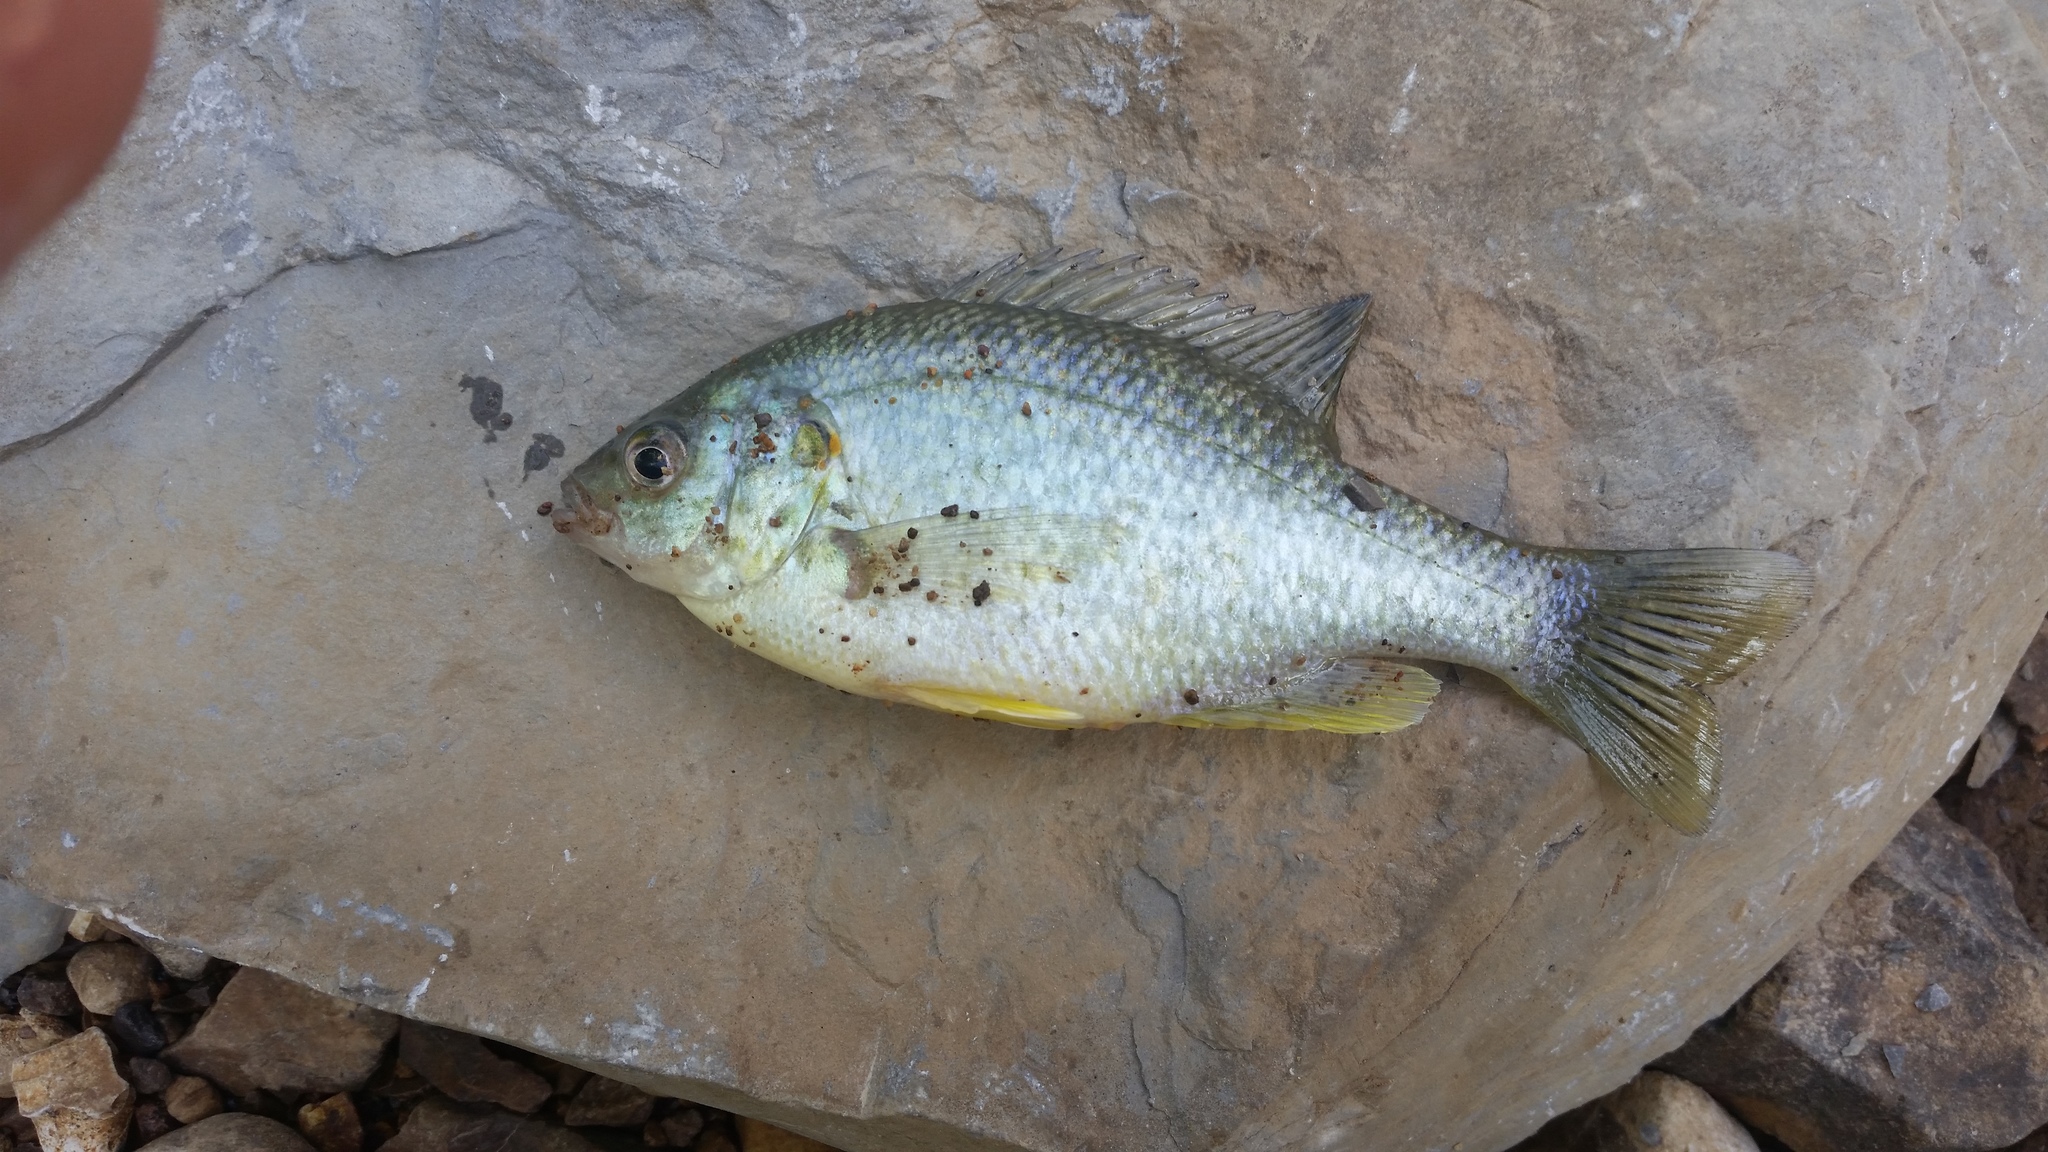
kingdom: Animalia
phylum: Chordata
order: Perciformes
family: Centrarchidae
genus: Lepomis
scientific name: Lepomis microlophus
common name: Redear sunfish
